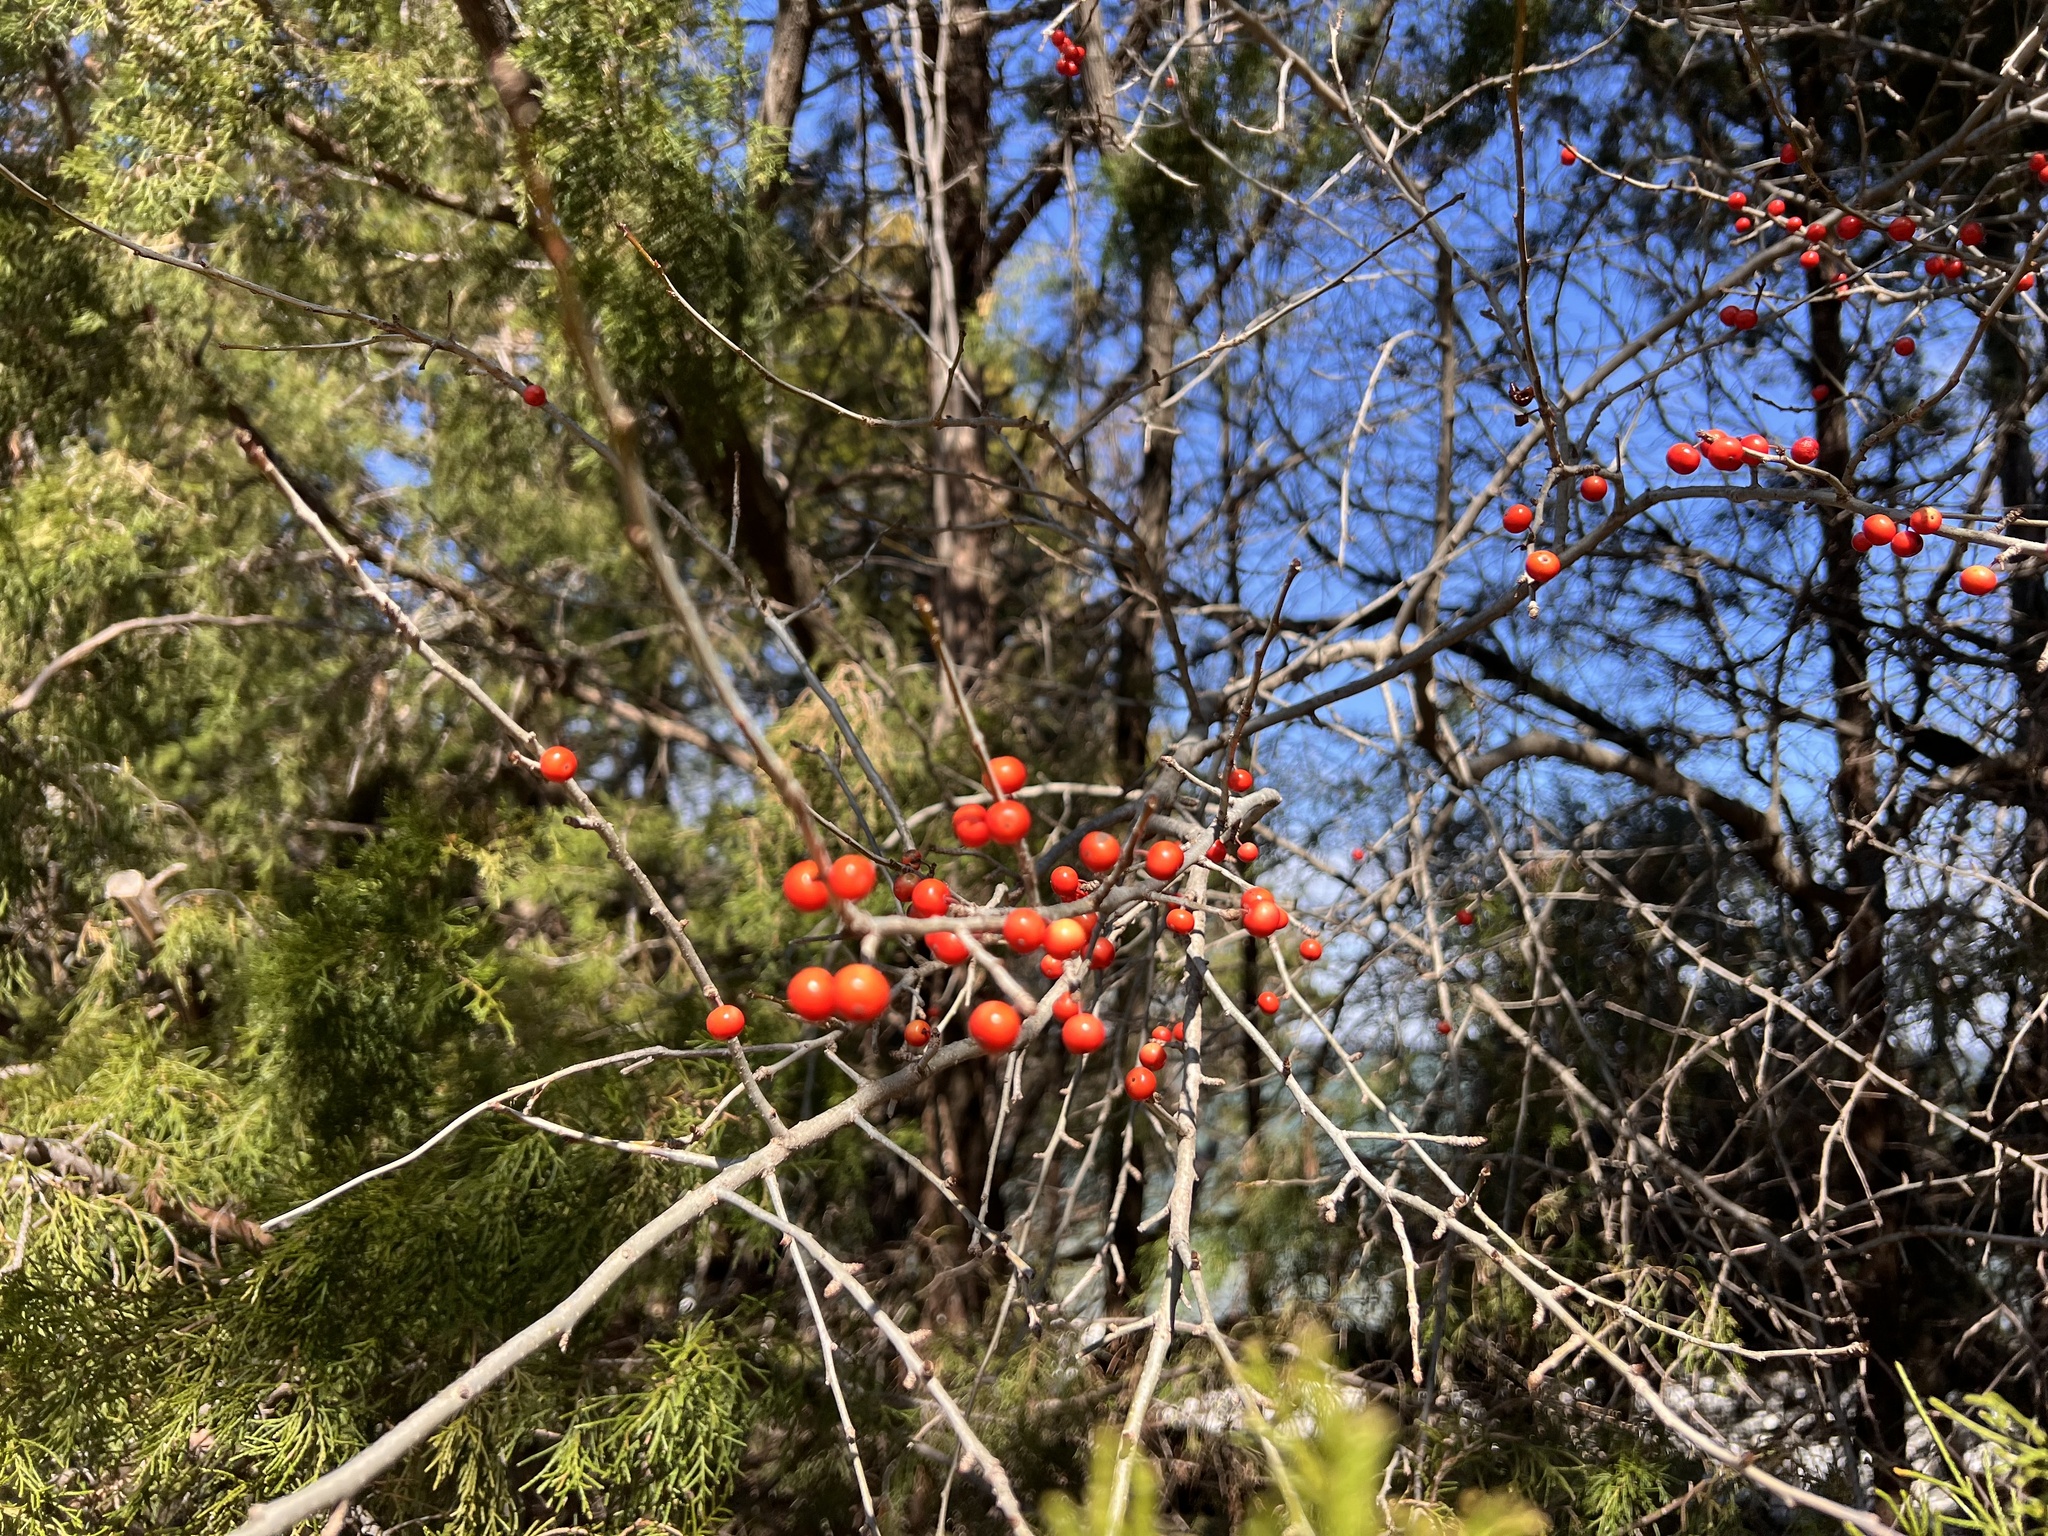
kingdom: Plantae
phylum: Tracheophyta
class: Magnoliopsida
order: Aquifoliales
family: Aquifoliaceae
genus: Ilex
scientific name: Ilex decidua
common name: Possum-haw
